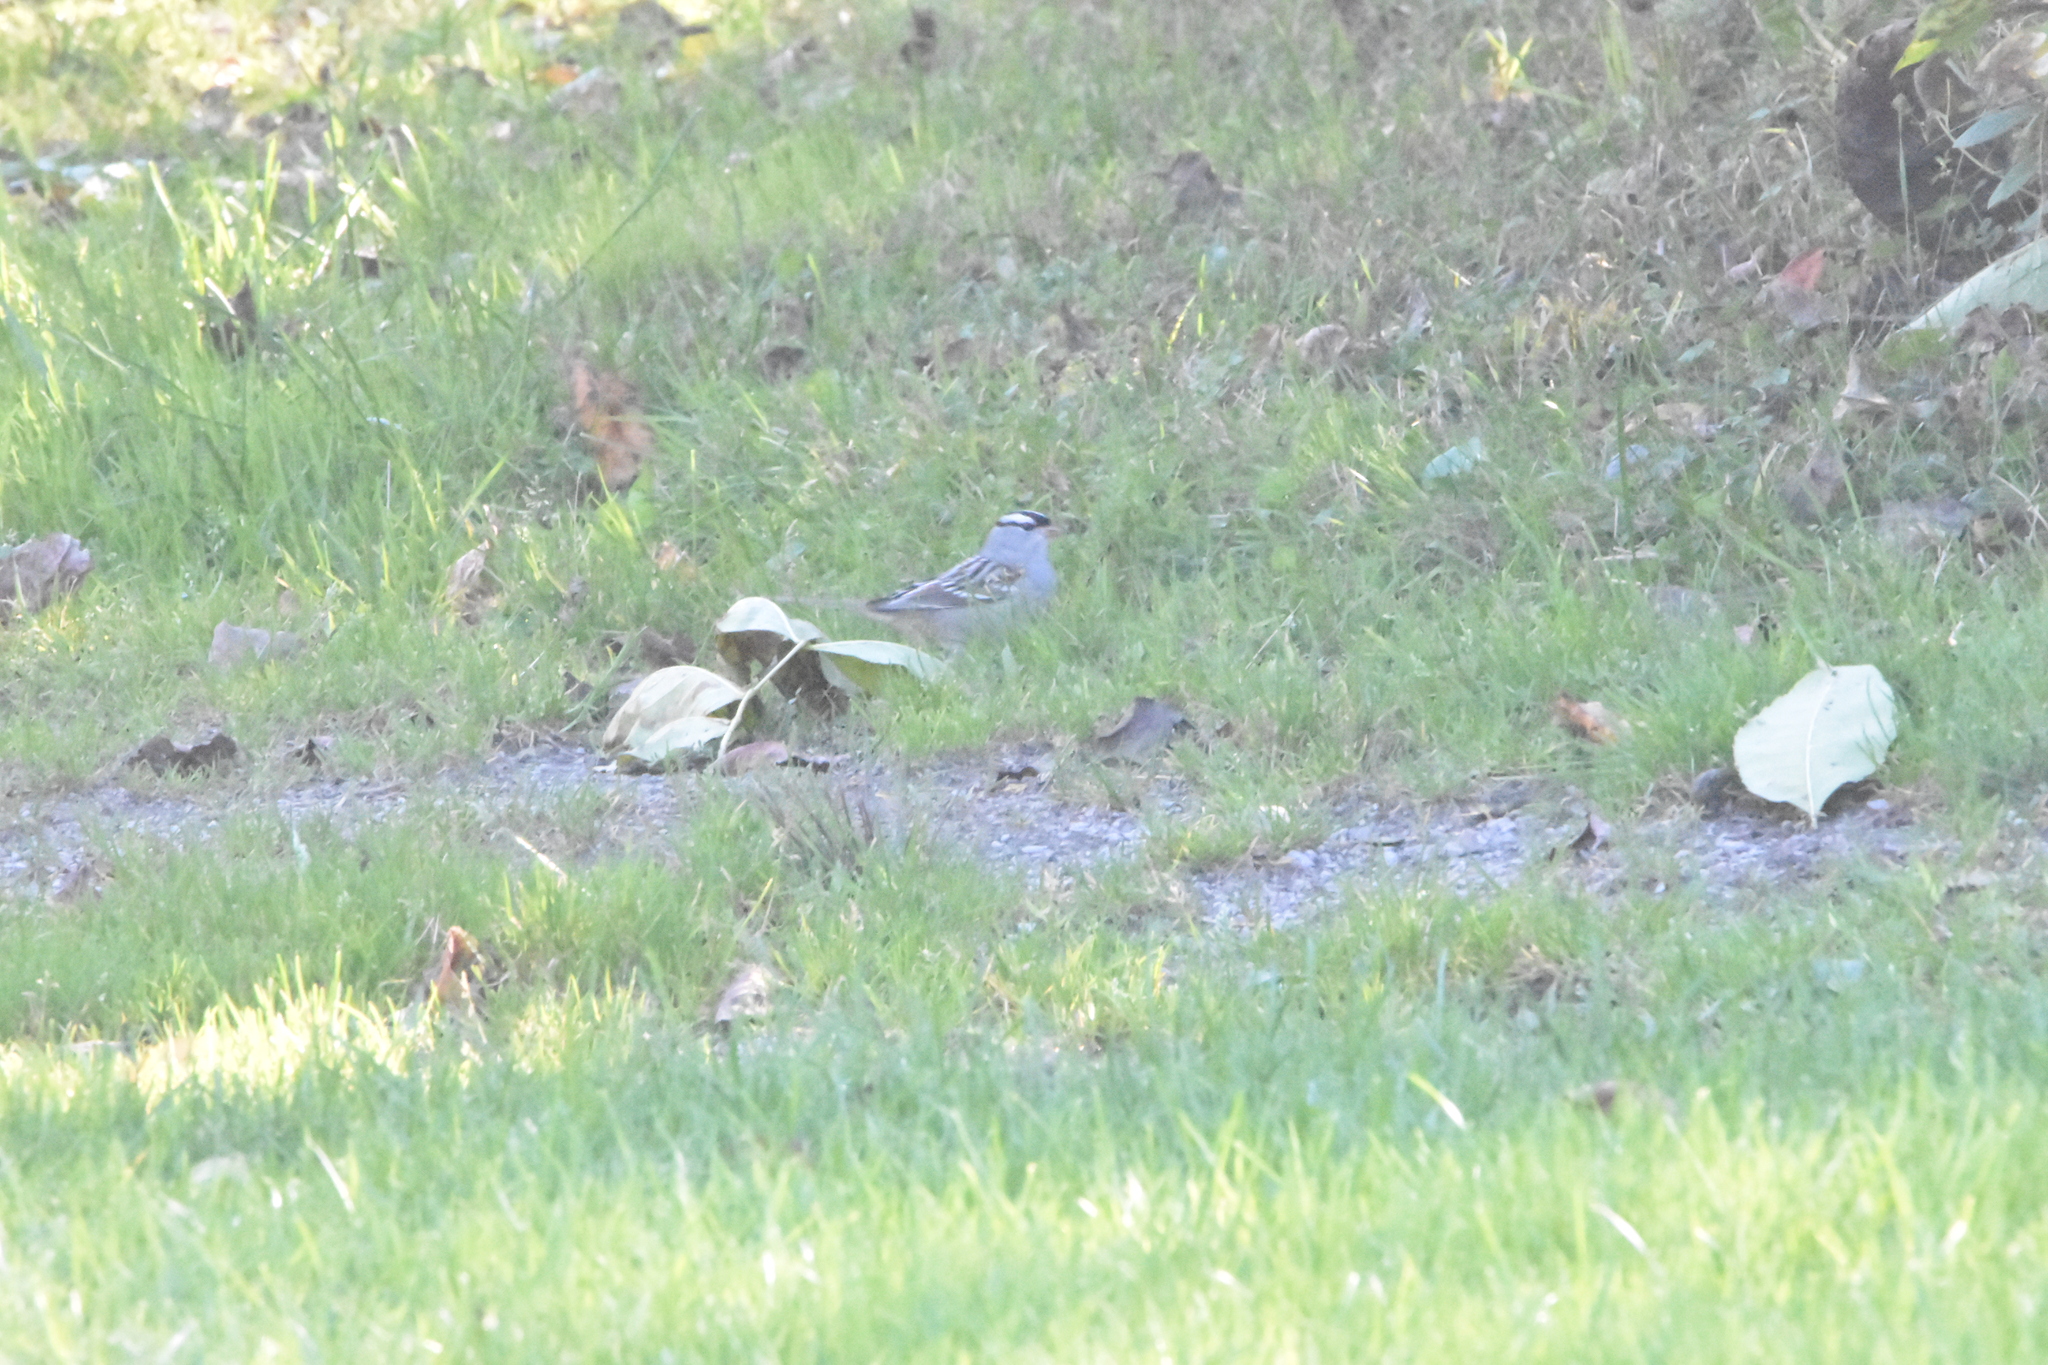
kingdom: Animalia
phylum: Chordata
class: Aves
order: Passeriformes
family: Passerellidae
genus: Zonotrichia
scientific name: Zonotrichia leucophrys
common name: White-crowned sparrow
